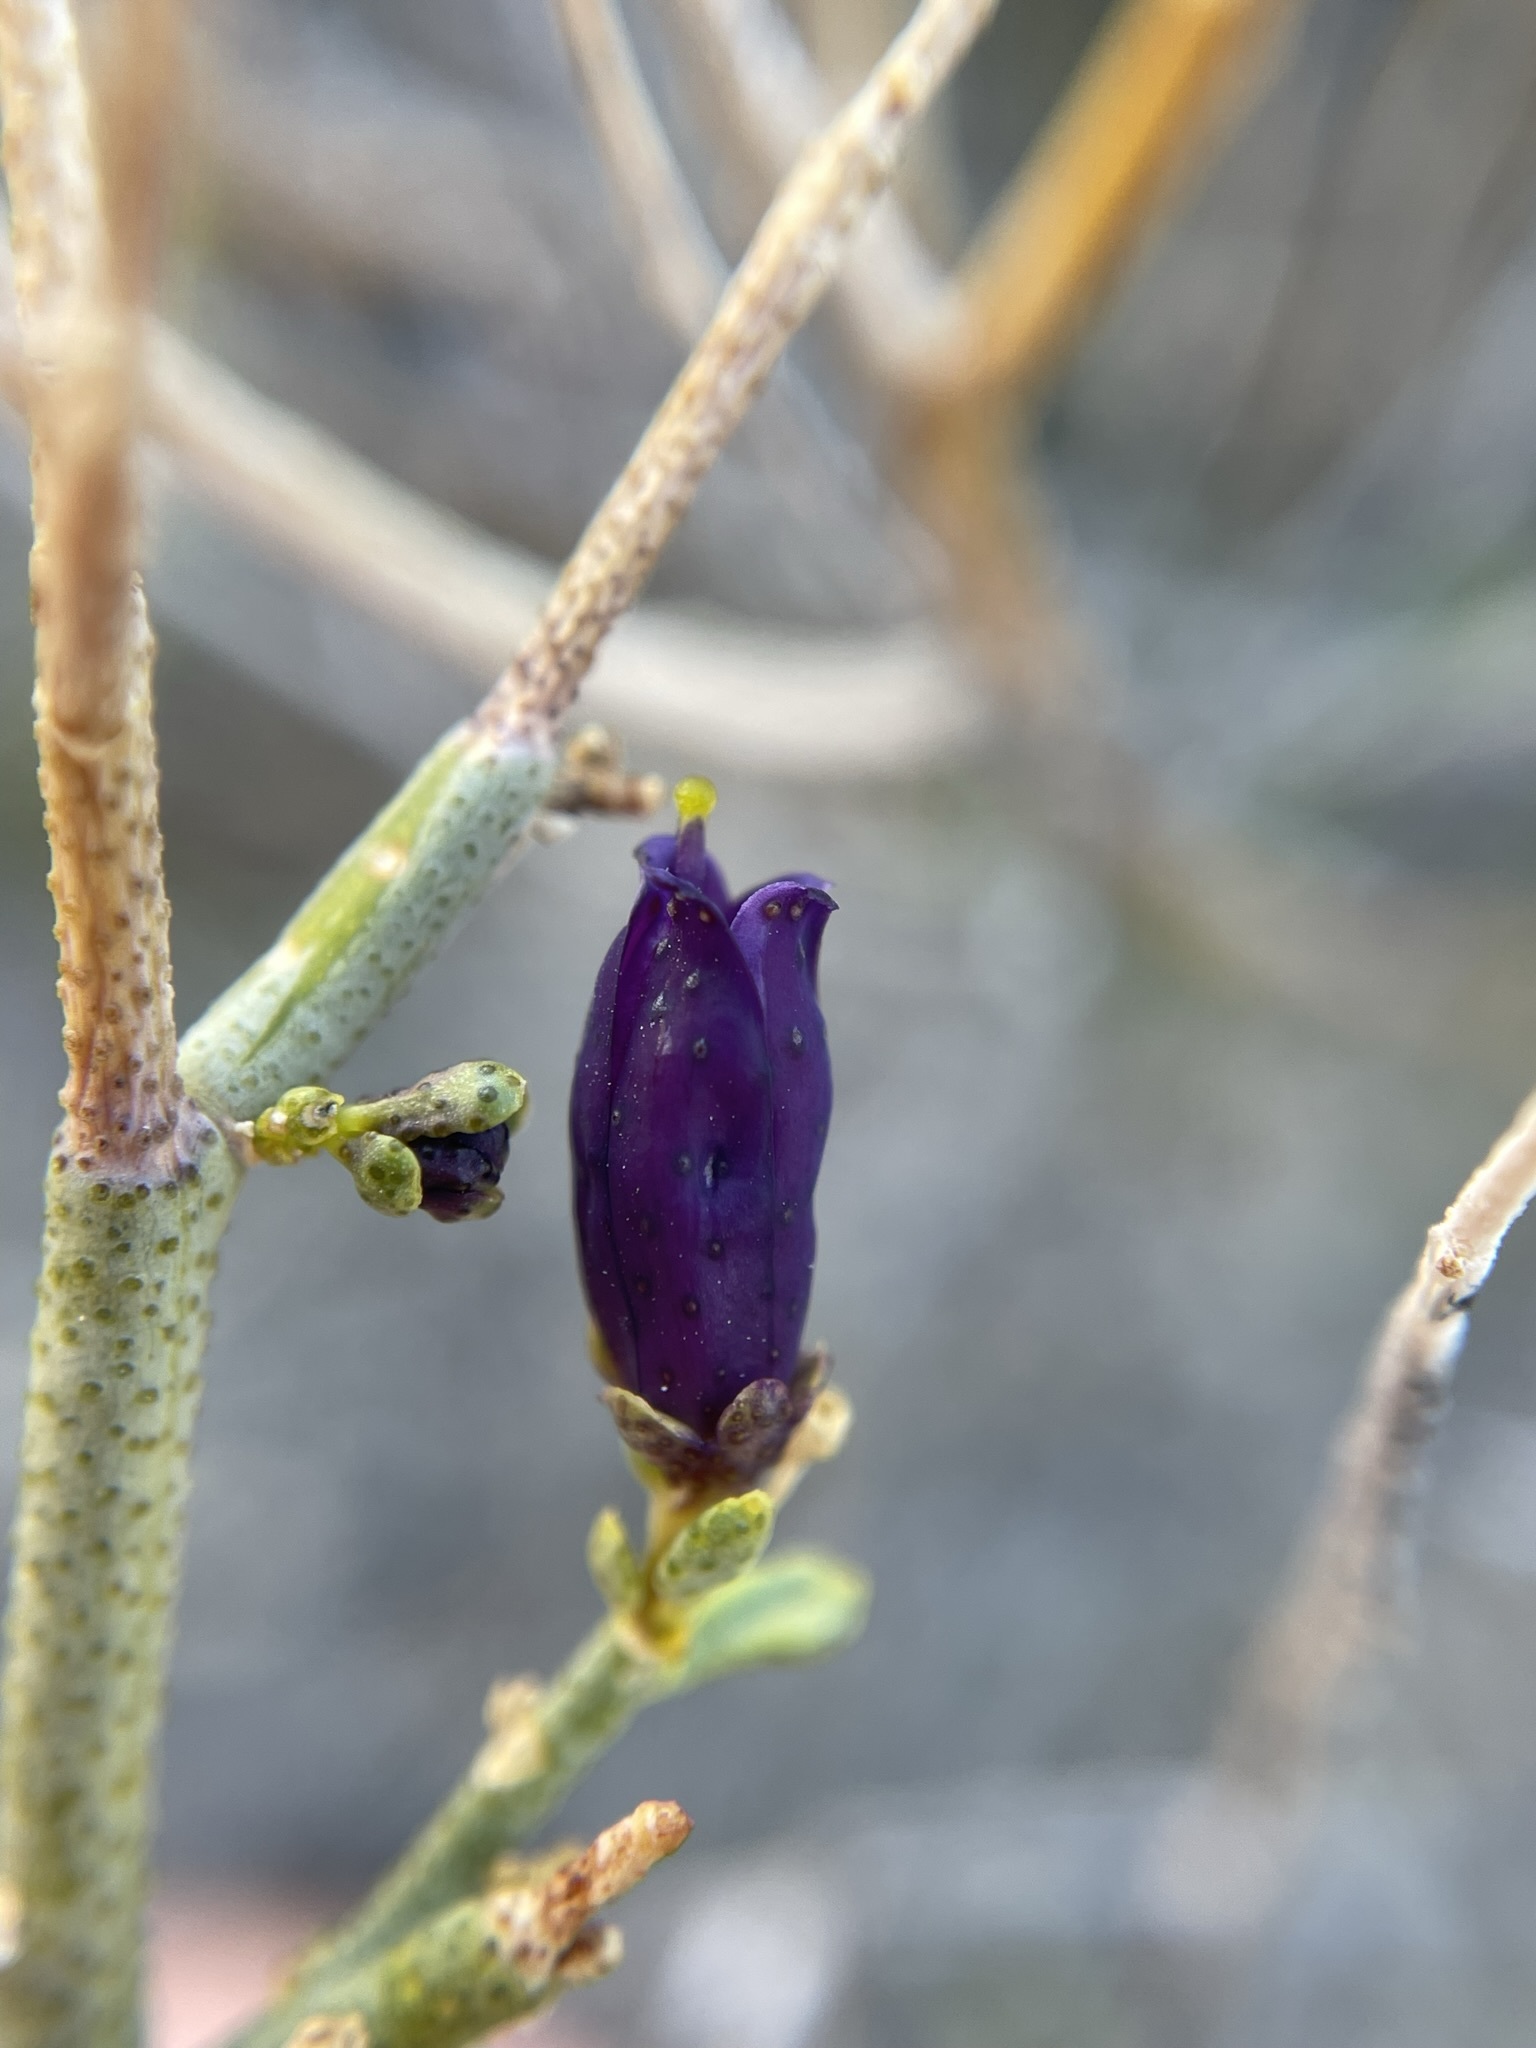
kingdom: Plantae
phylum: Tracheophyta
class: Magnoliopsida
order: Sapindales
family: Rutaceae
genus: Thamnosma
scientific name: Thamnosma montana
